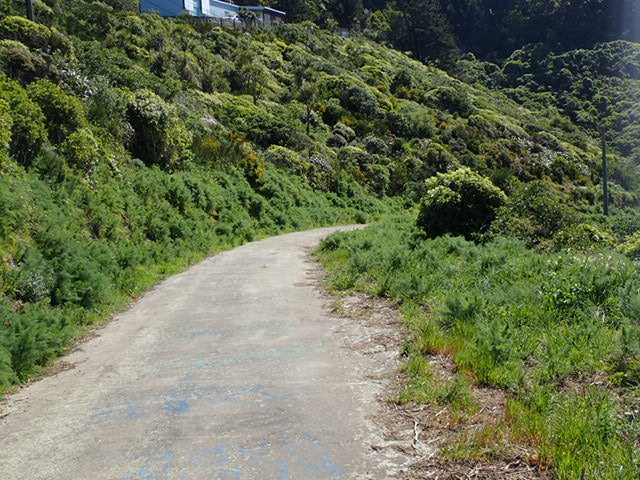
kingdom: Plantae
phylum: Tracheophyta
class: Magnoliopsida
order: Apiales
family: Apiaceae
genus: Foeniculum
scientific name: Foeniculum vulgare
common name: Fennel
